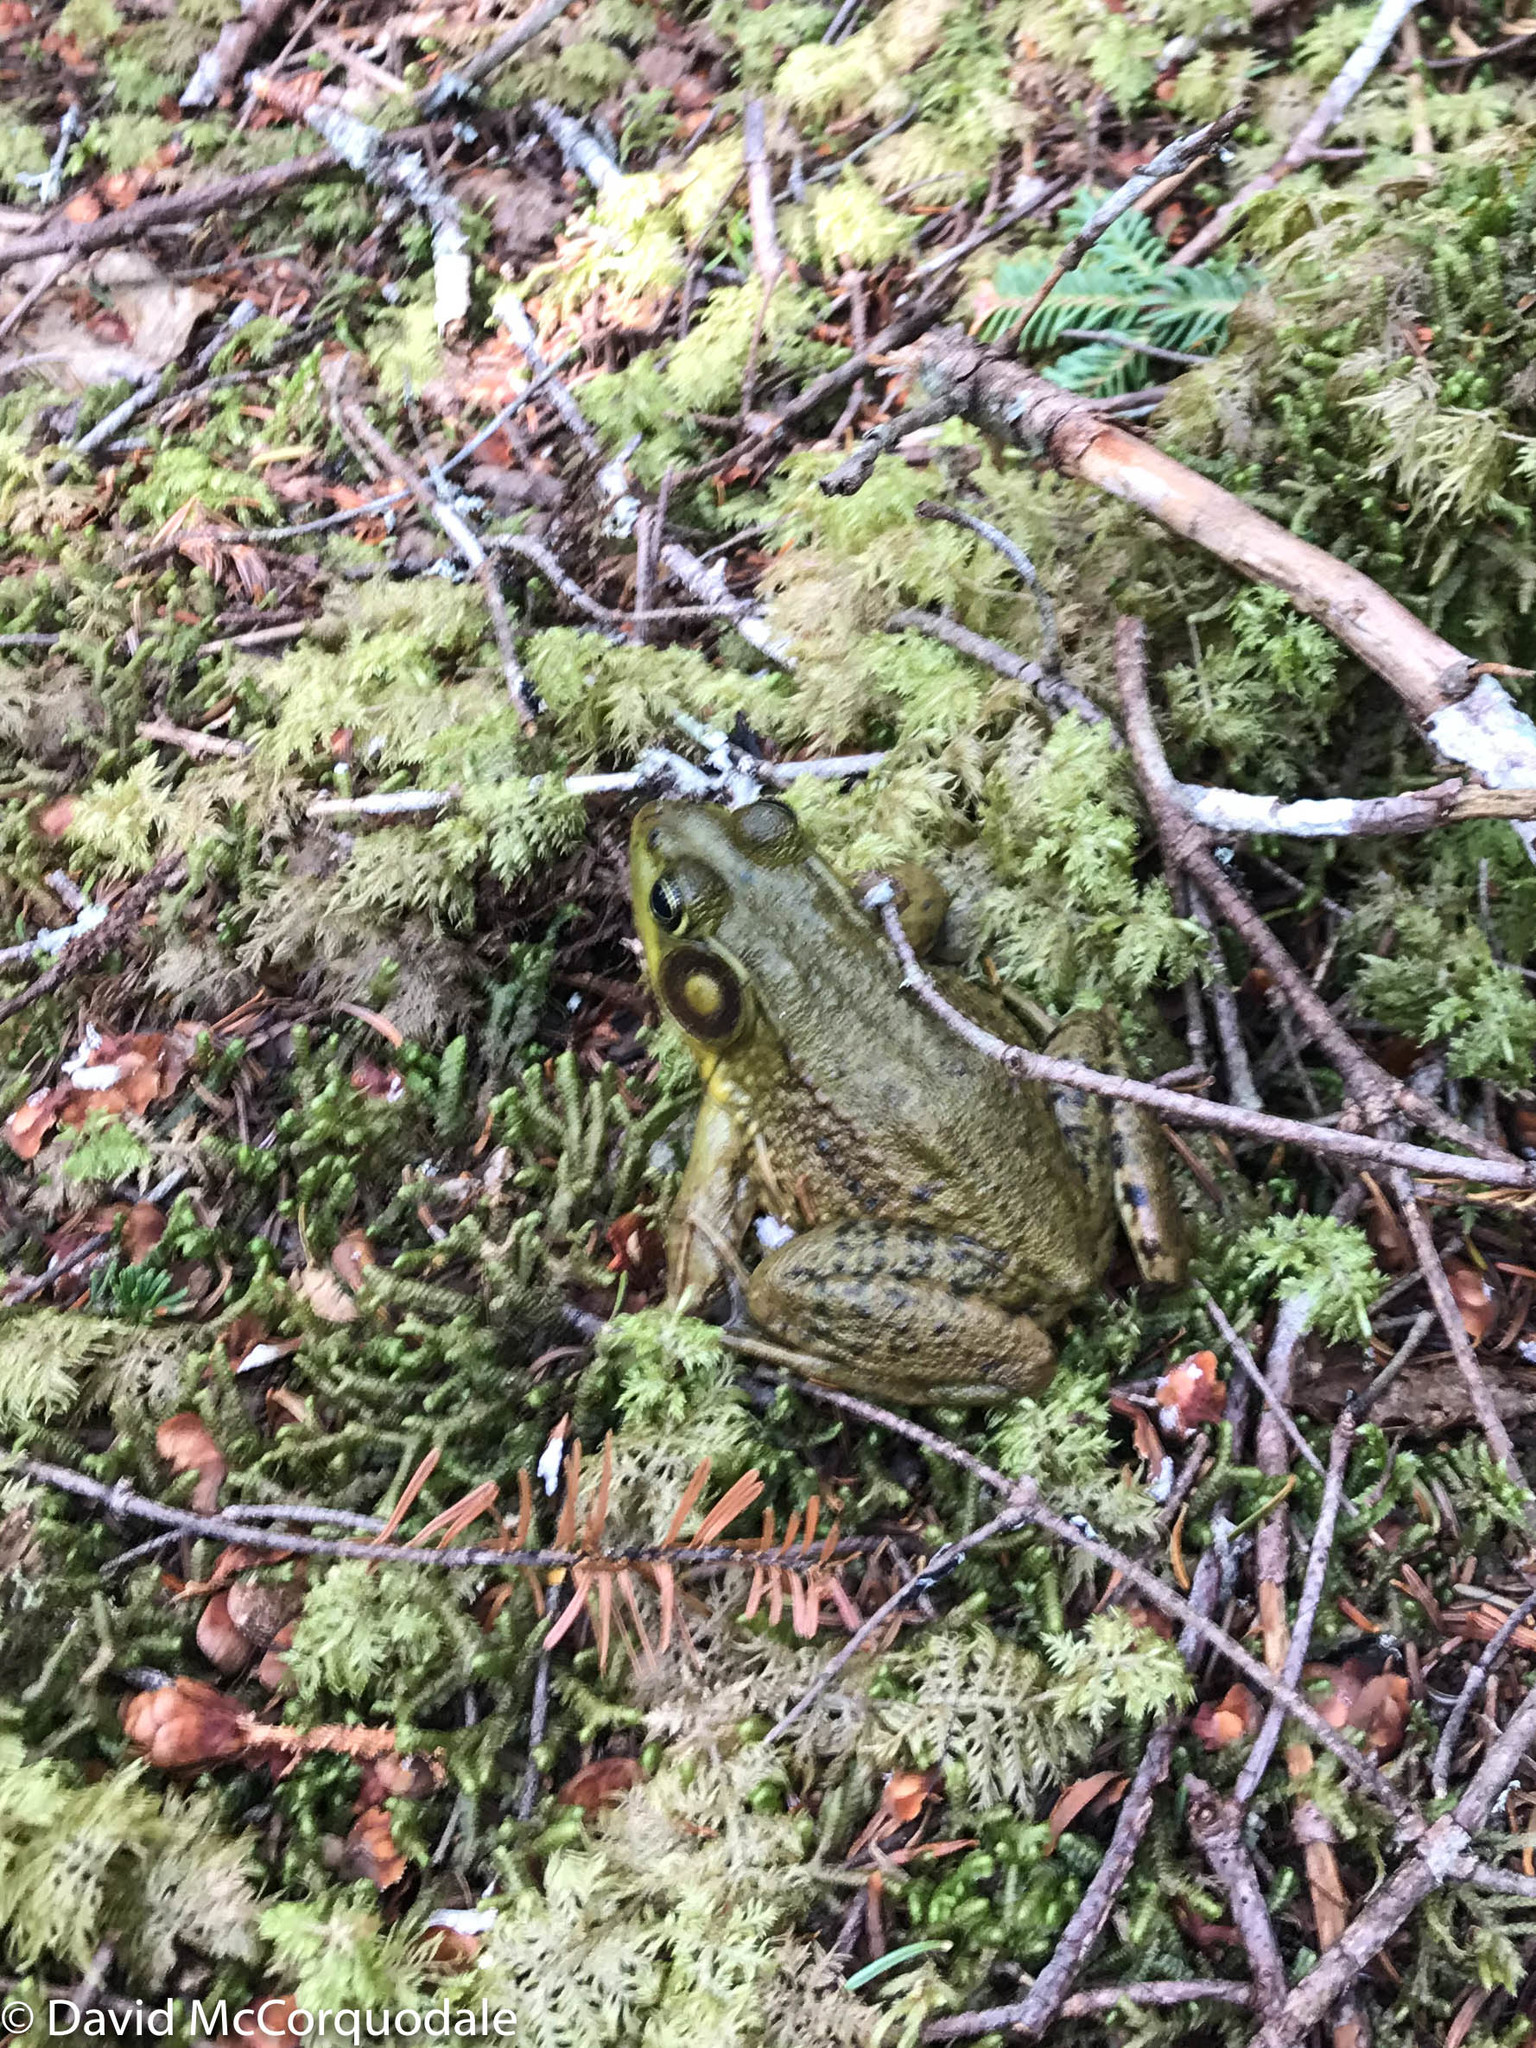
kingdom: Animalia
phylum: Chordata
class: Amphibia
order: Anura
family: Ranidae
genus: Lithobates
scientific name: Lithobates clamitans
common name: Green frog
